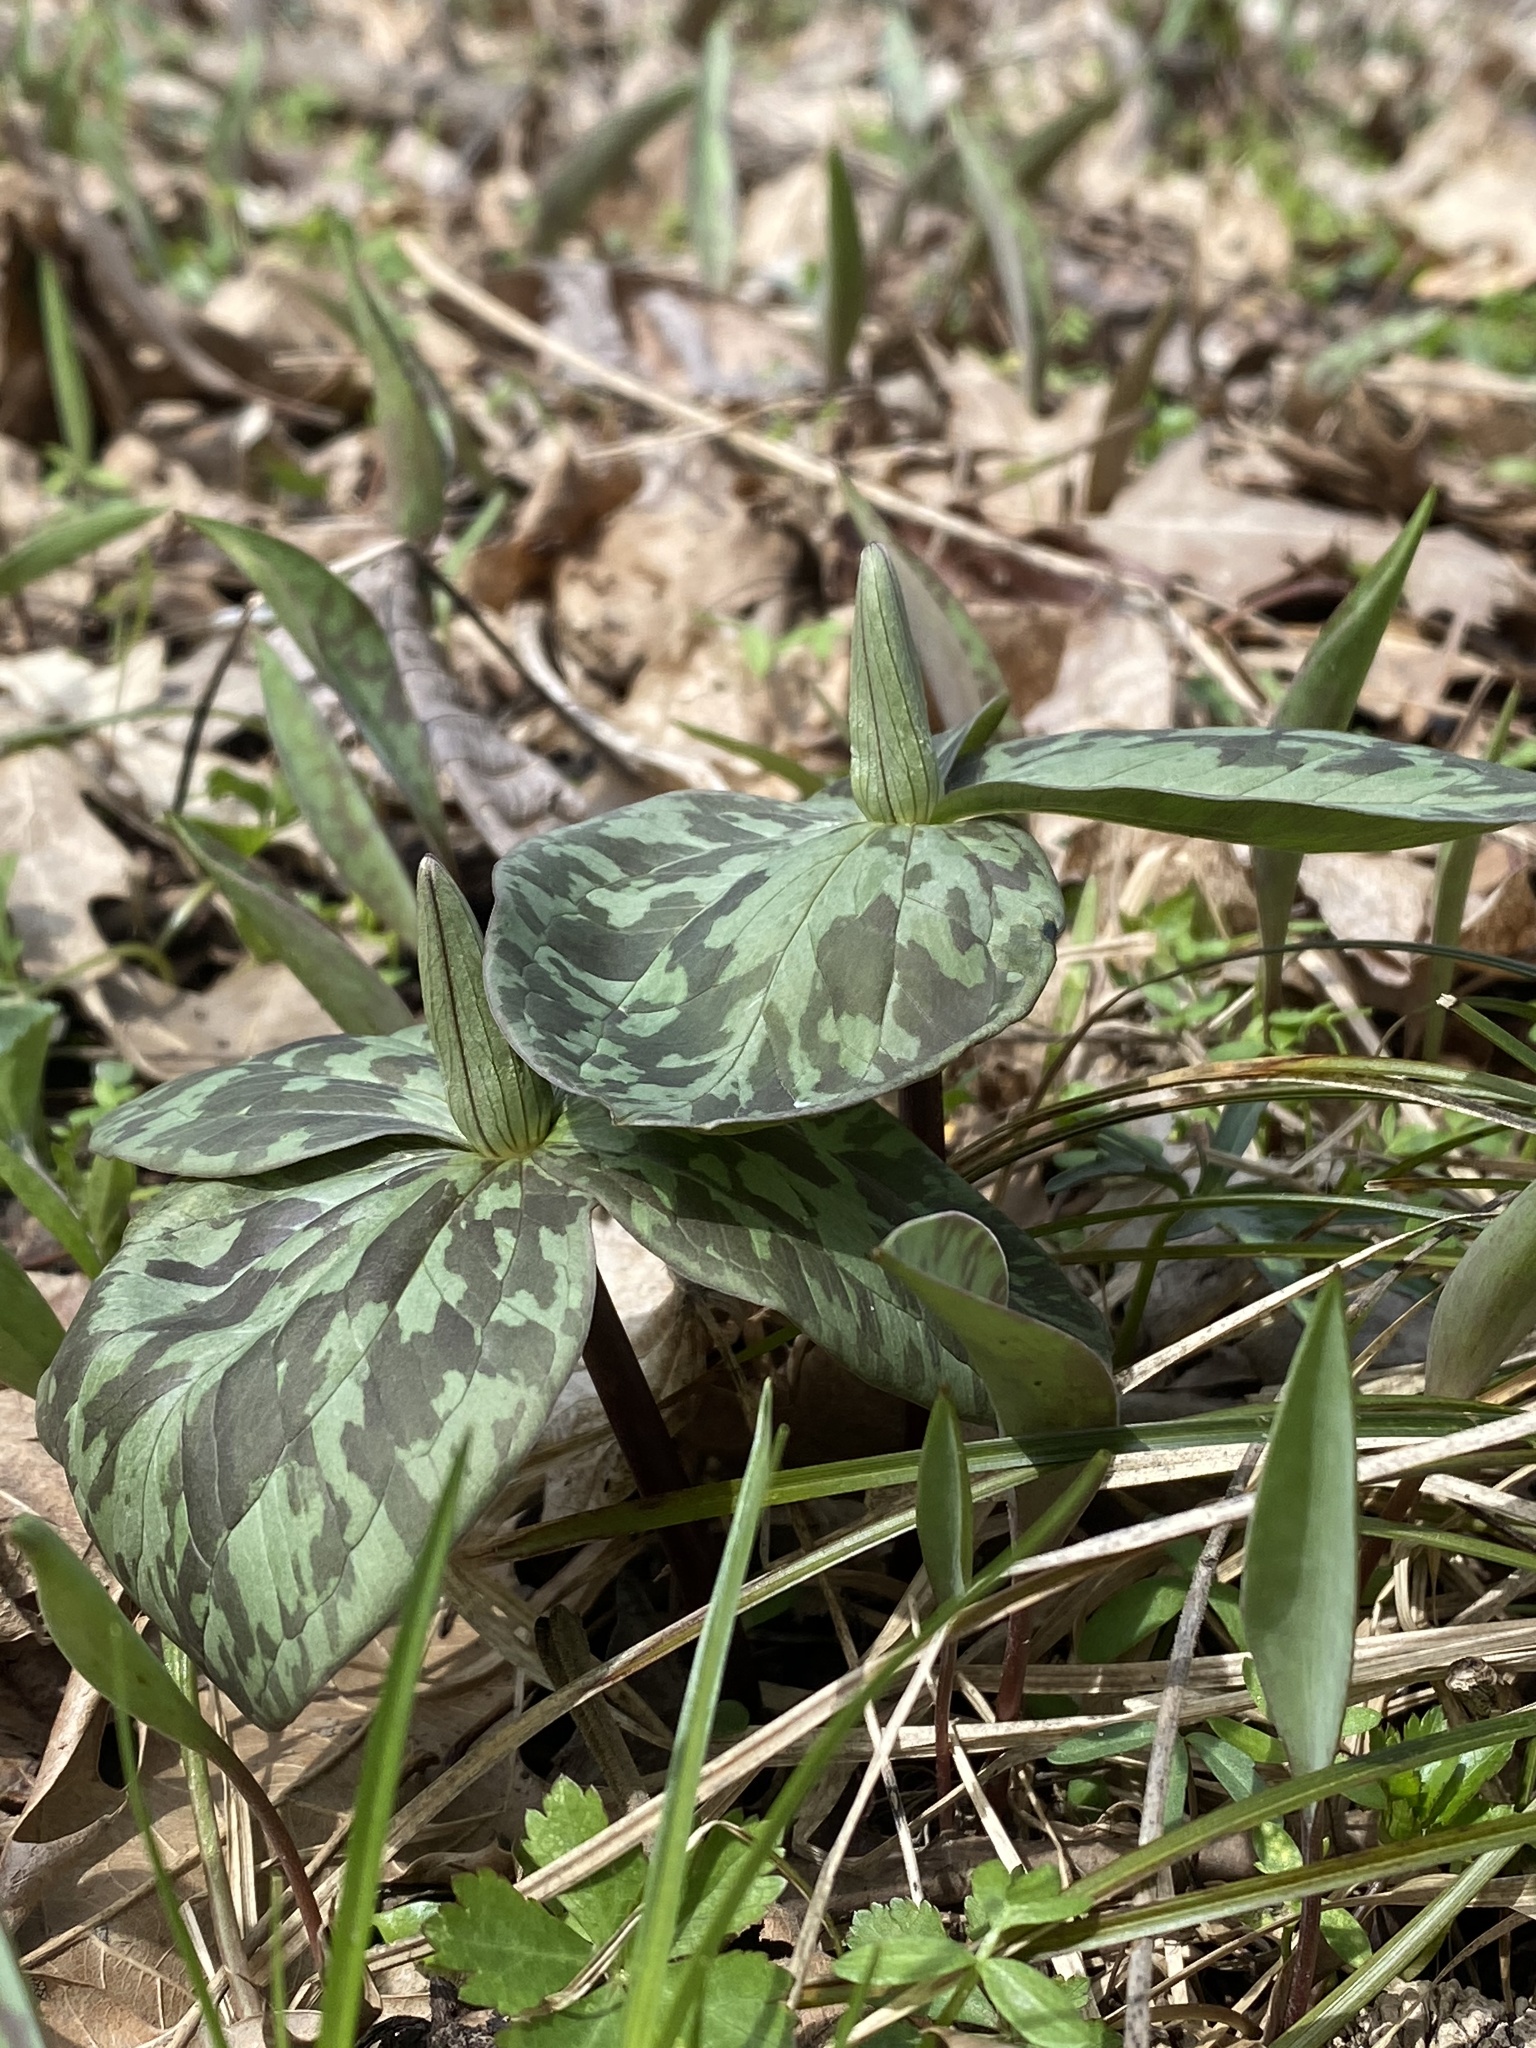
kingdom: Plantae
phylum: Tracheophyta
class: Liliopsida
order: Liliales
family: Melanthiaceae
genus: Trillium
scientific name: Trillium sessile
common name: Sessile trillium
